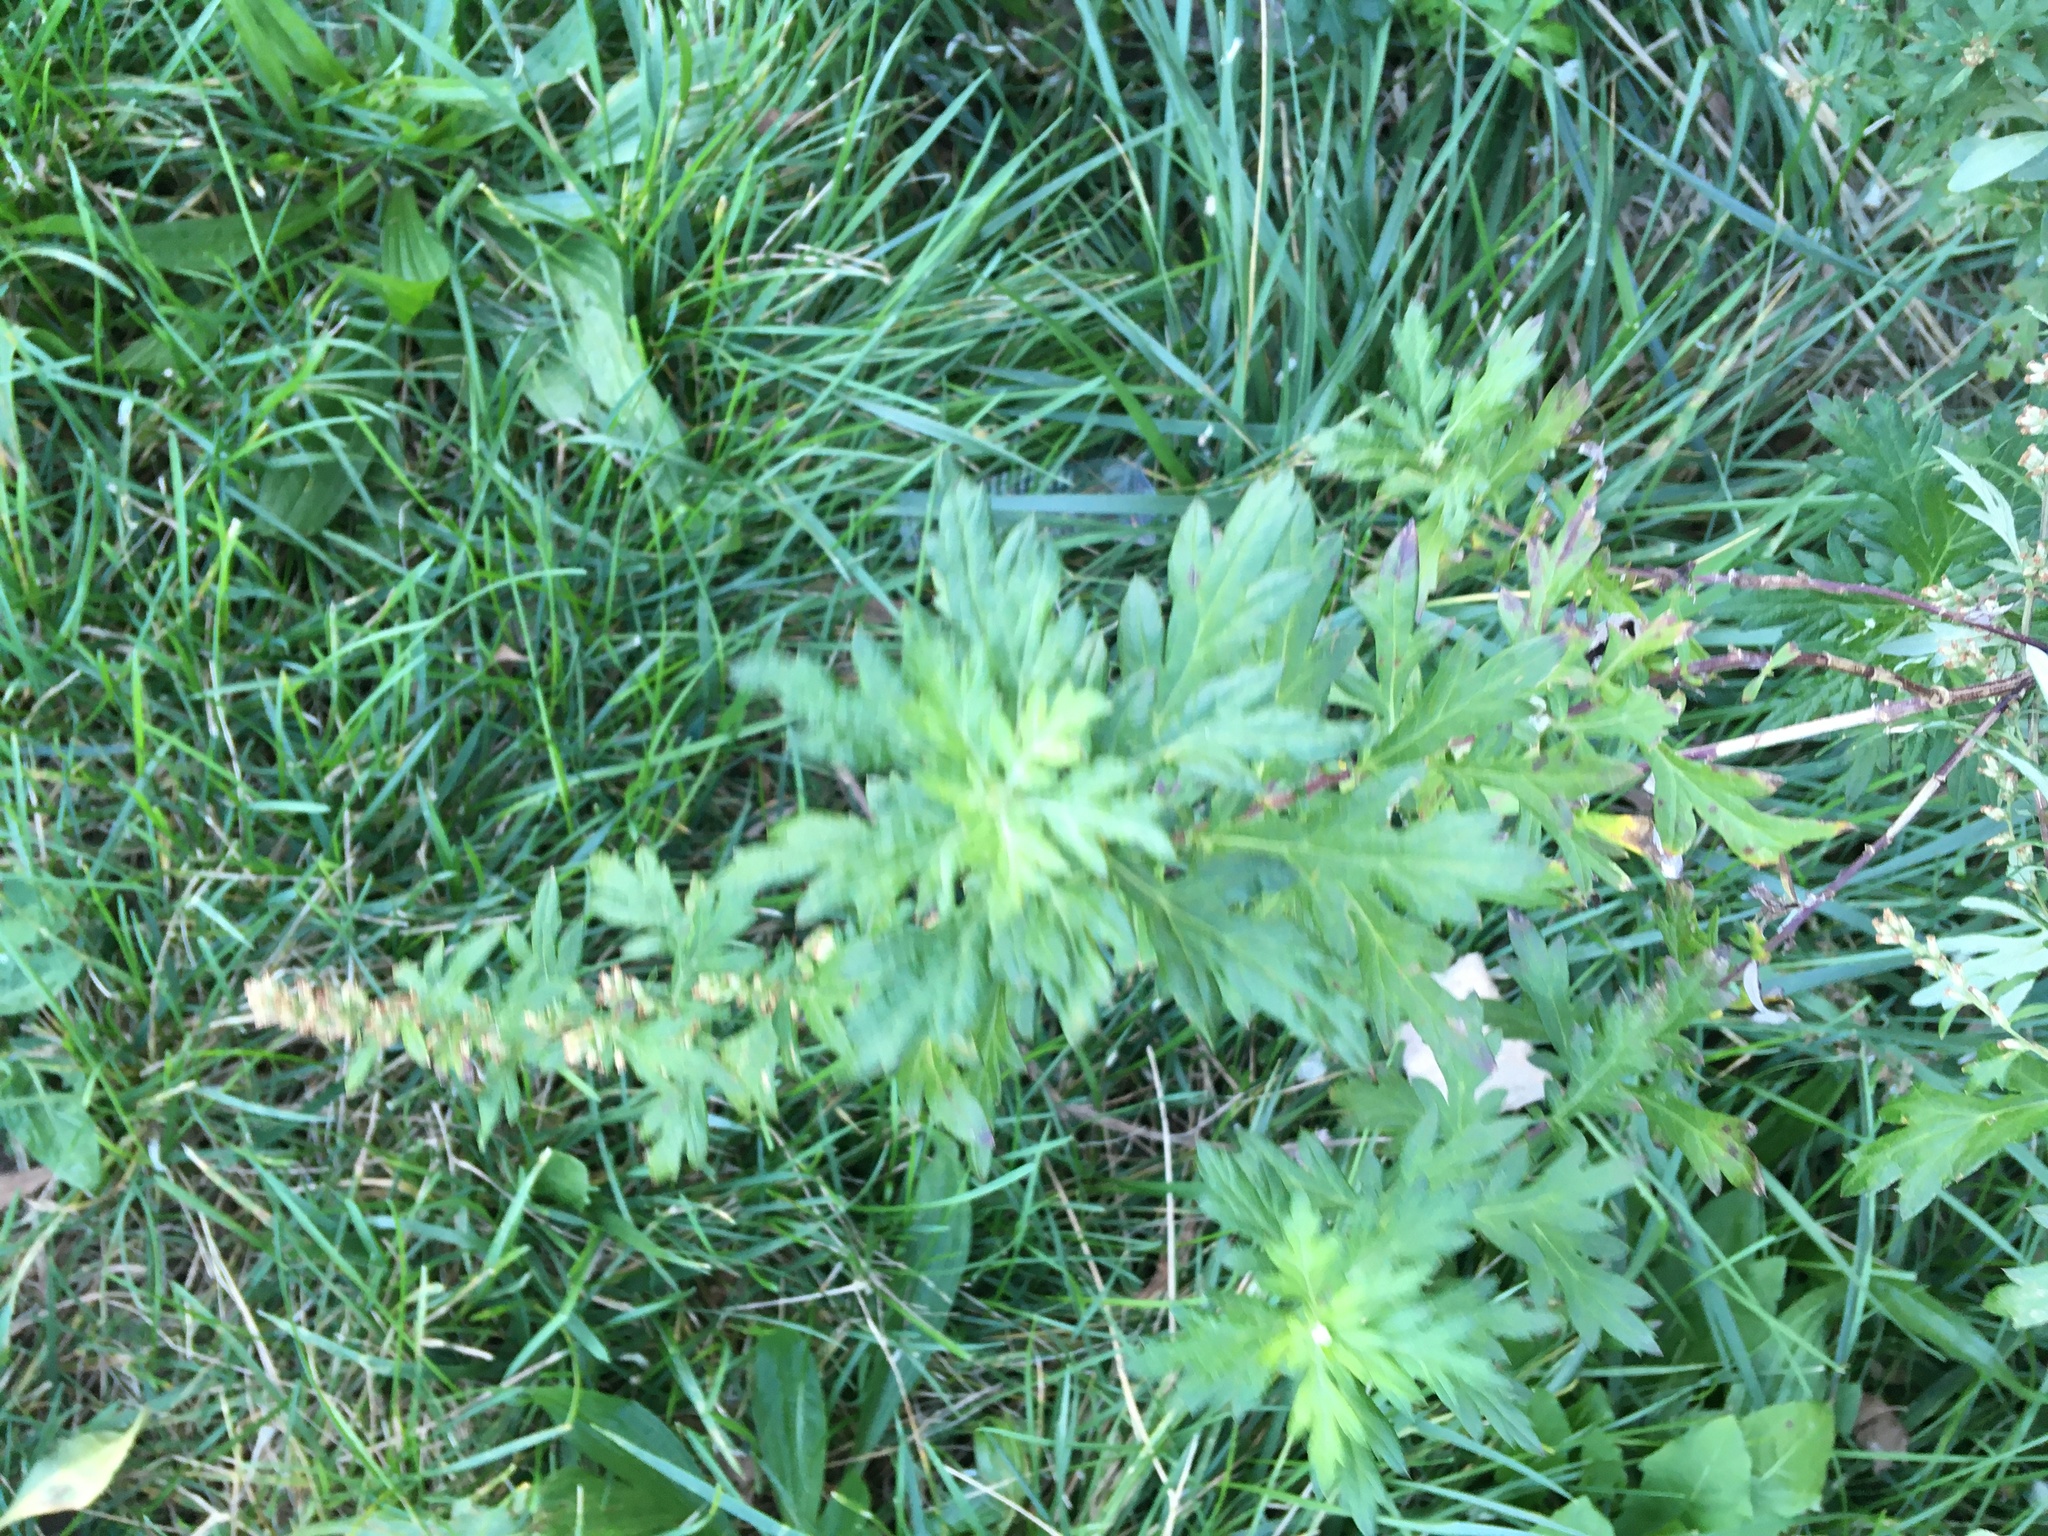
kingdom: Plantae
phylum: Tracheophyta
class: Magnoliopsida
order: Asterales
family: Asteraceae
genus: Artemisia
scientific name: Artemisia vulgaris
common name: Mugwort
